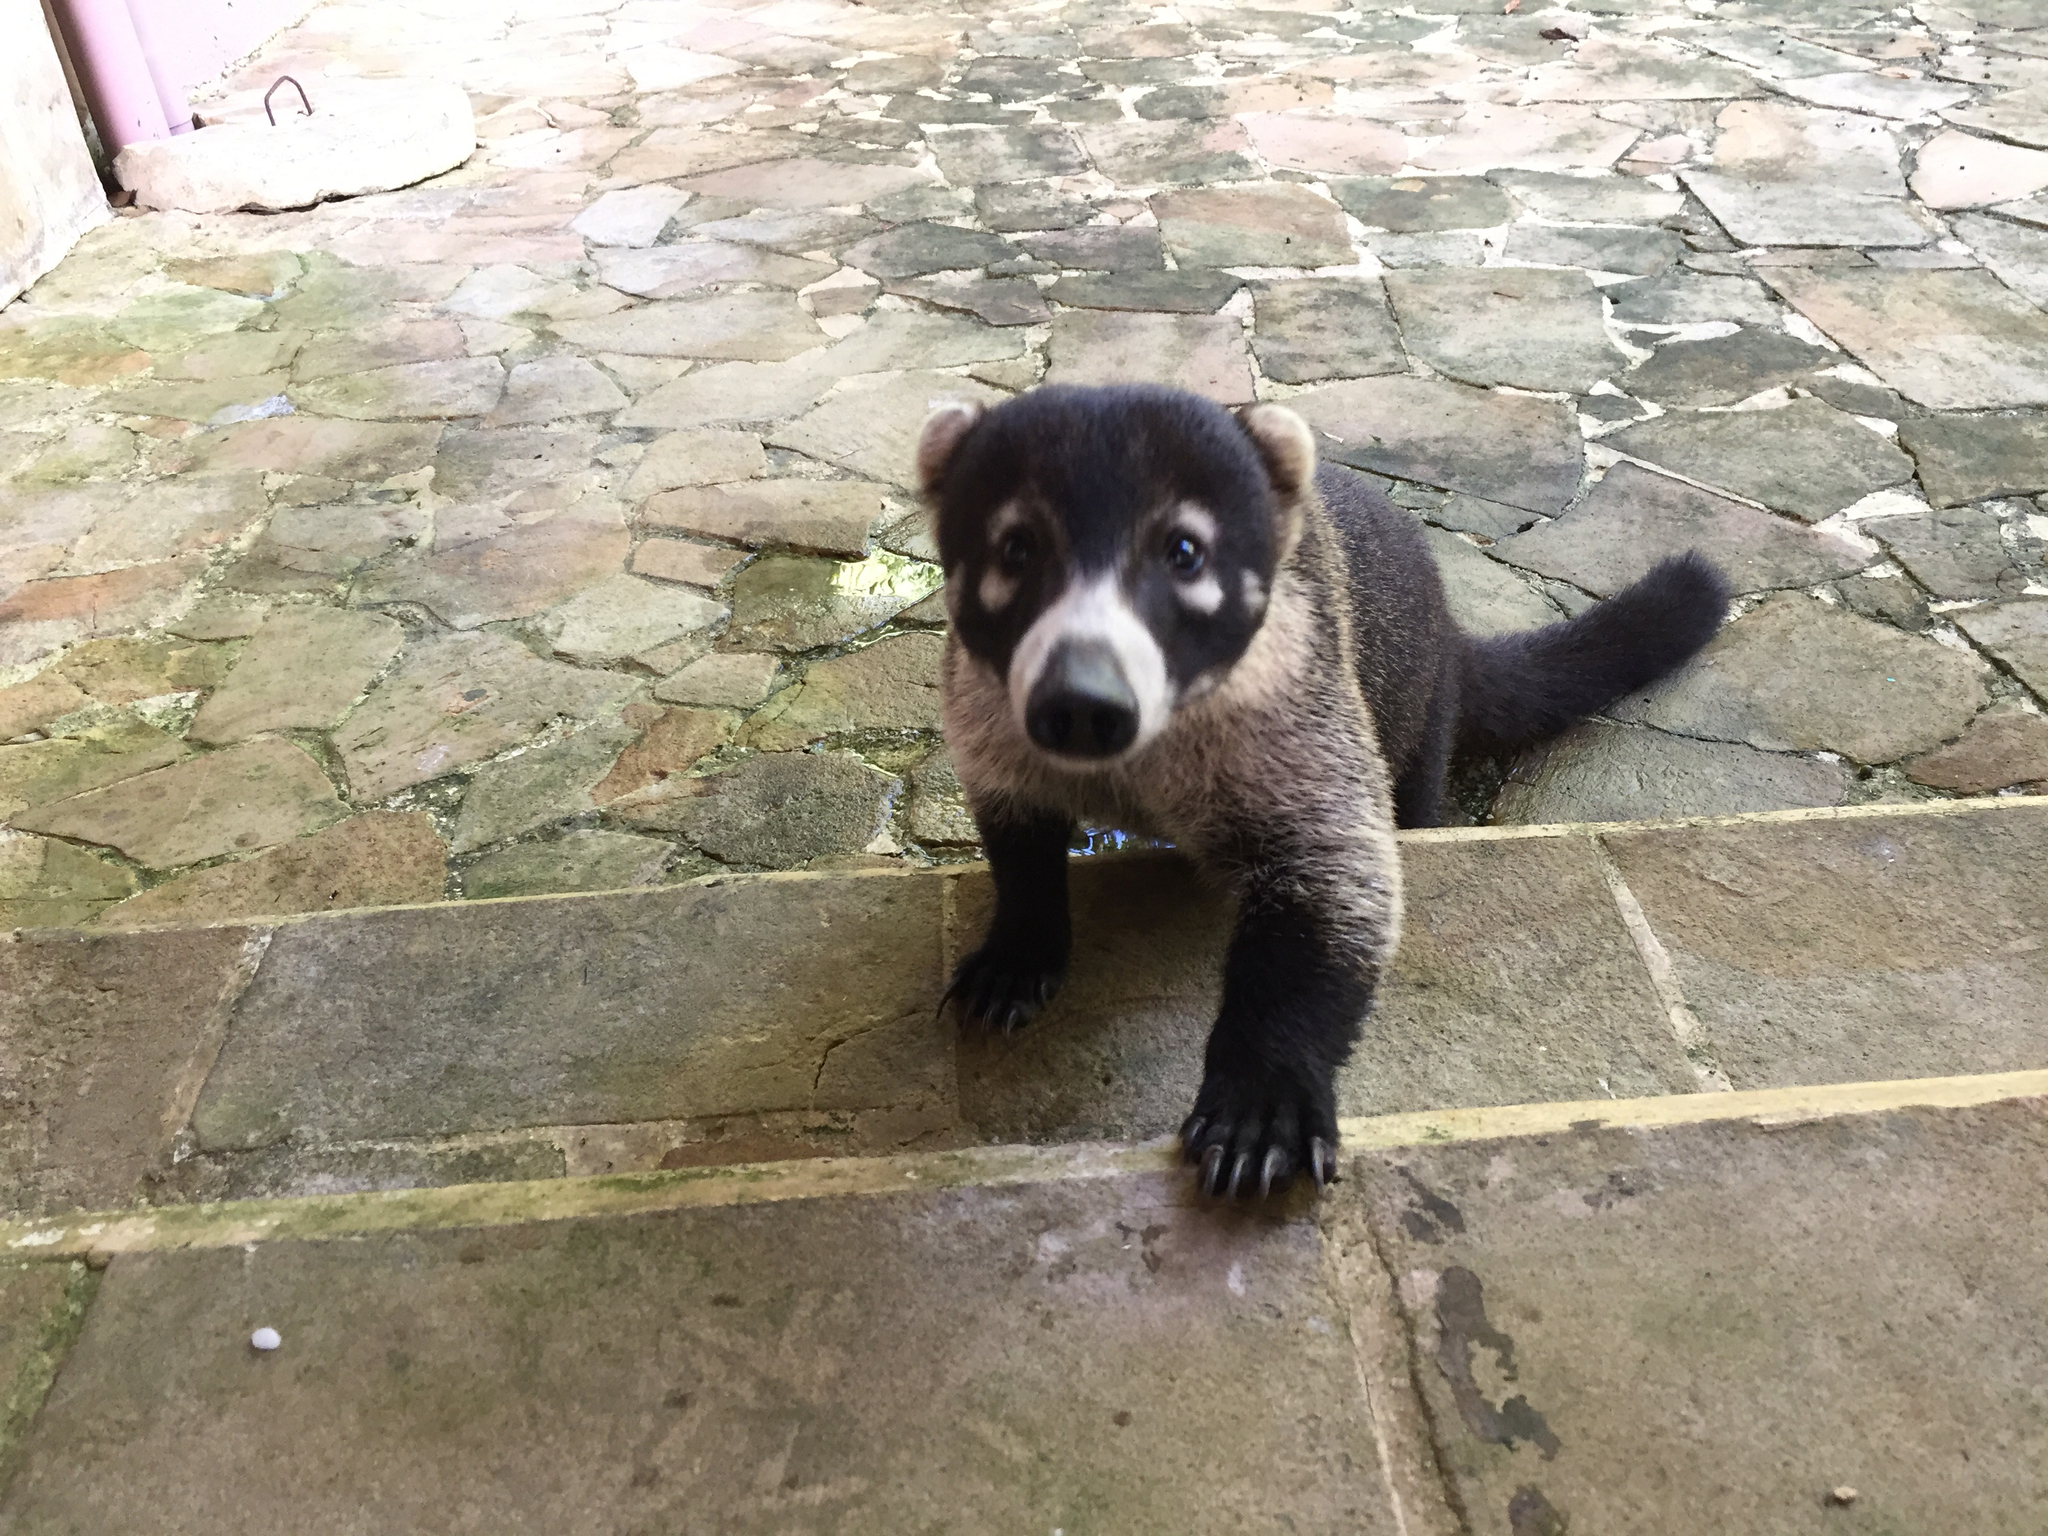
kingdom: Animalia
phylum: Chordata
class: Mammalia
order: Carnivora
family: Procyonidae
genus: Nasua
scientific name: Nasua narica
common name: White-nosed coati
